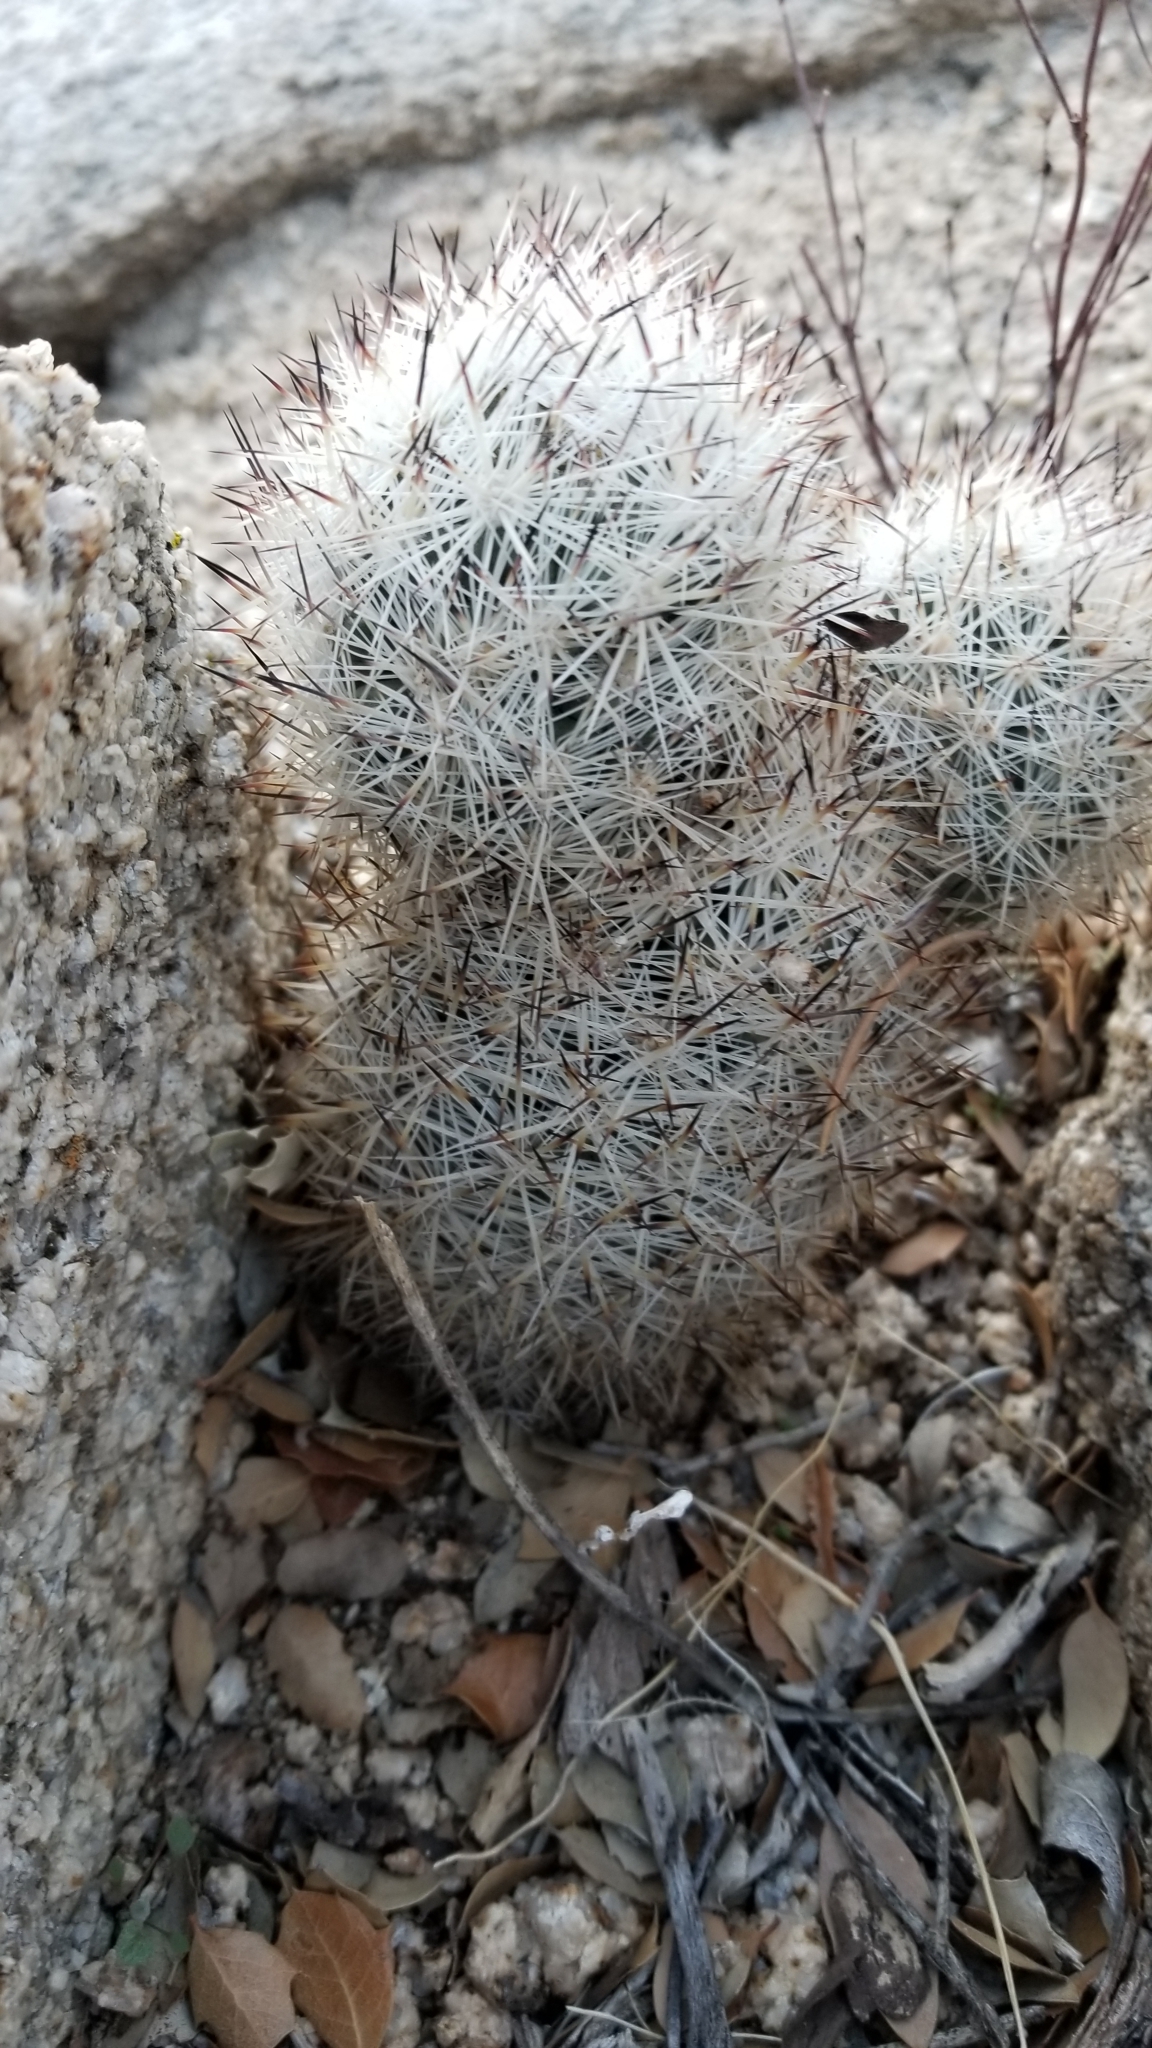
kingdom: Plantae
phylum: Tracheophyta
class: Magnoliopsida
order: Caryophyllales
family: Cactaceae
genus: Pelecyphora
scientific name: Pelecyphora alversonii
